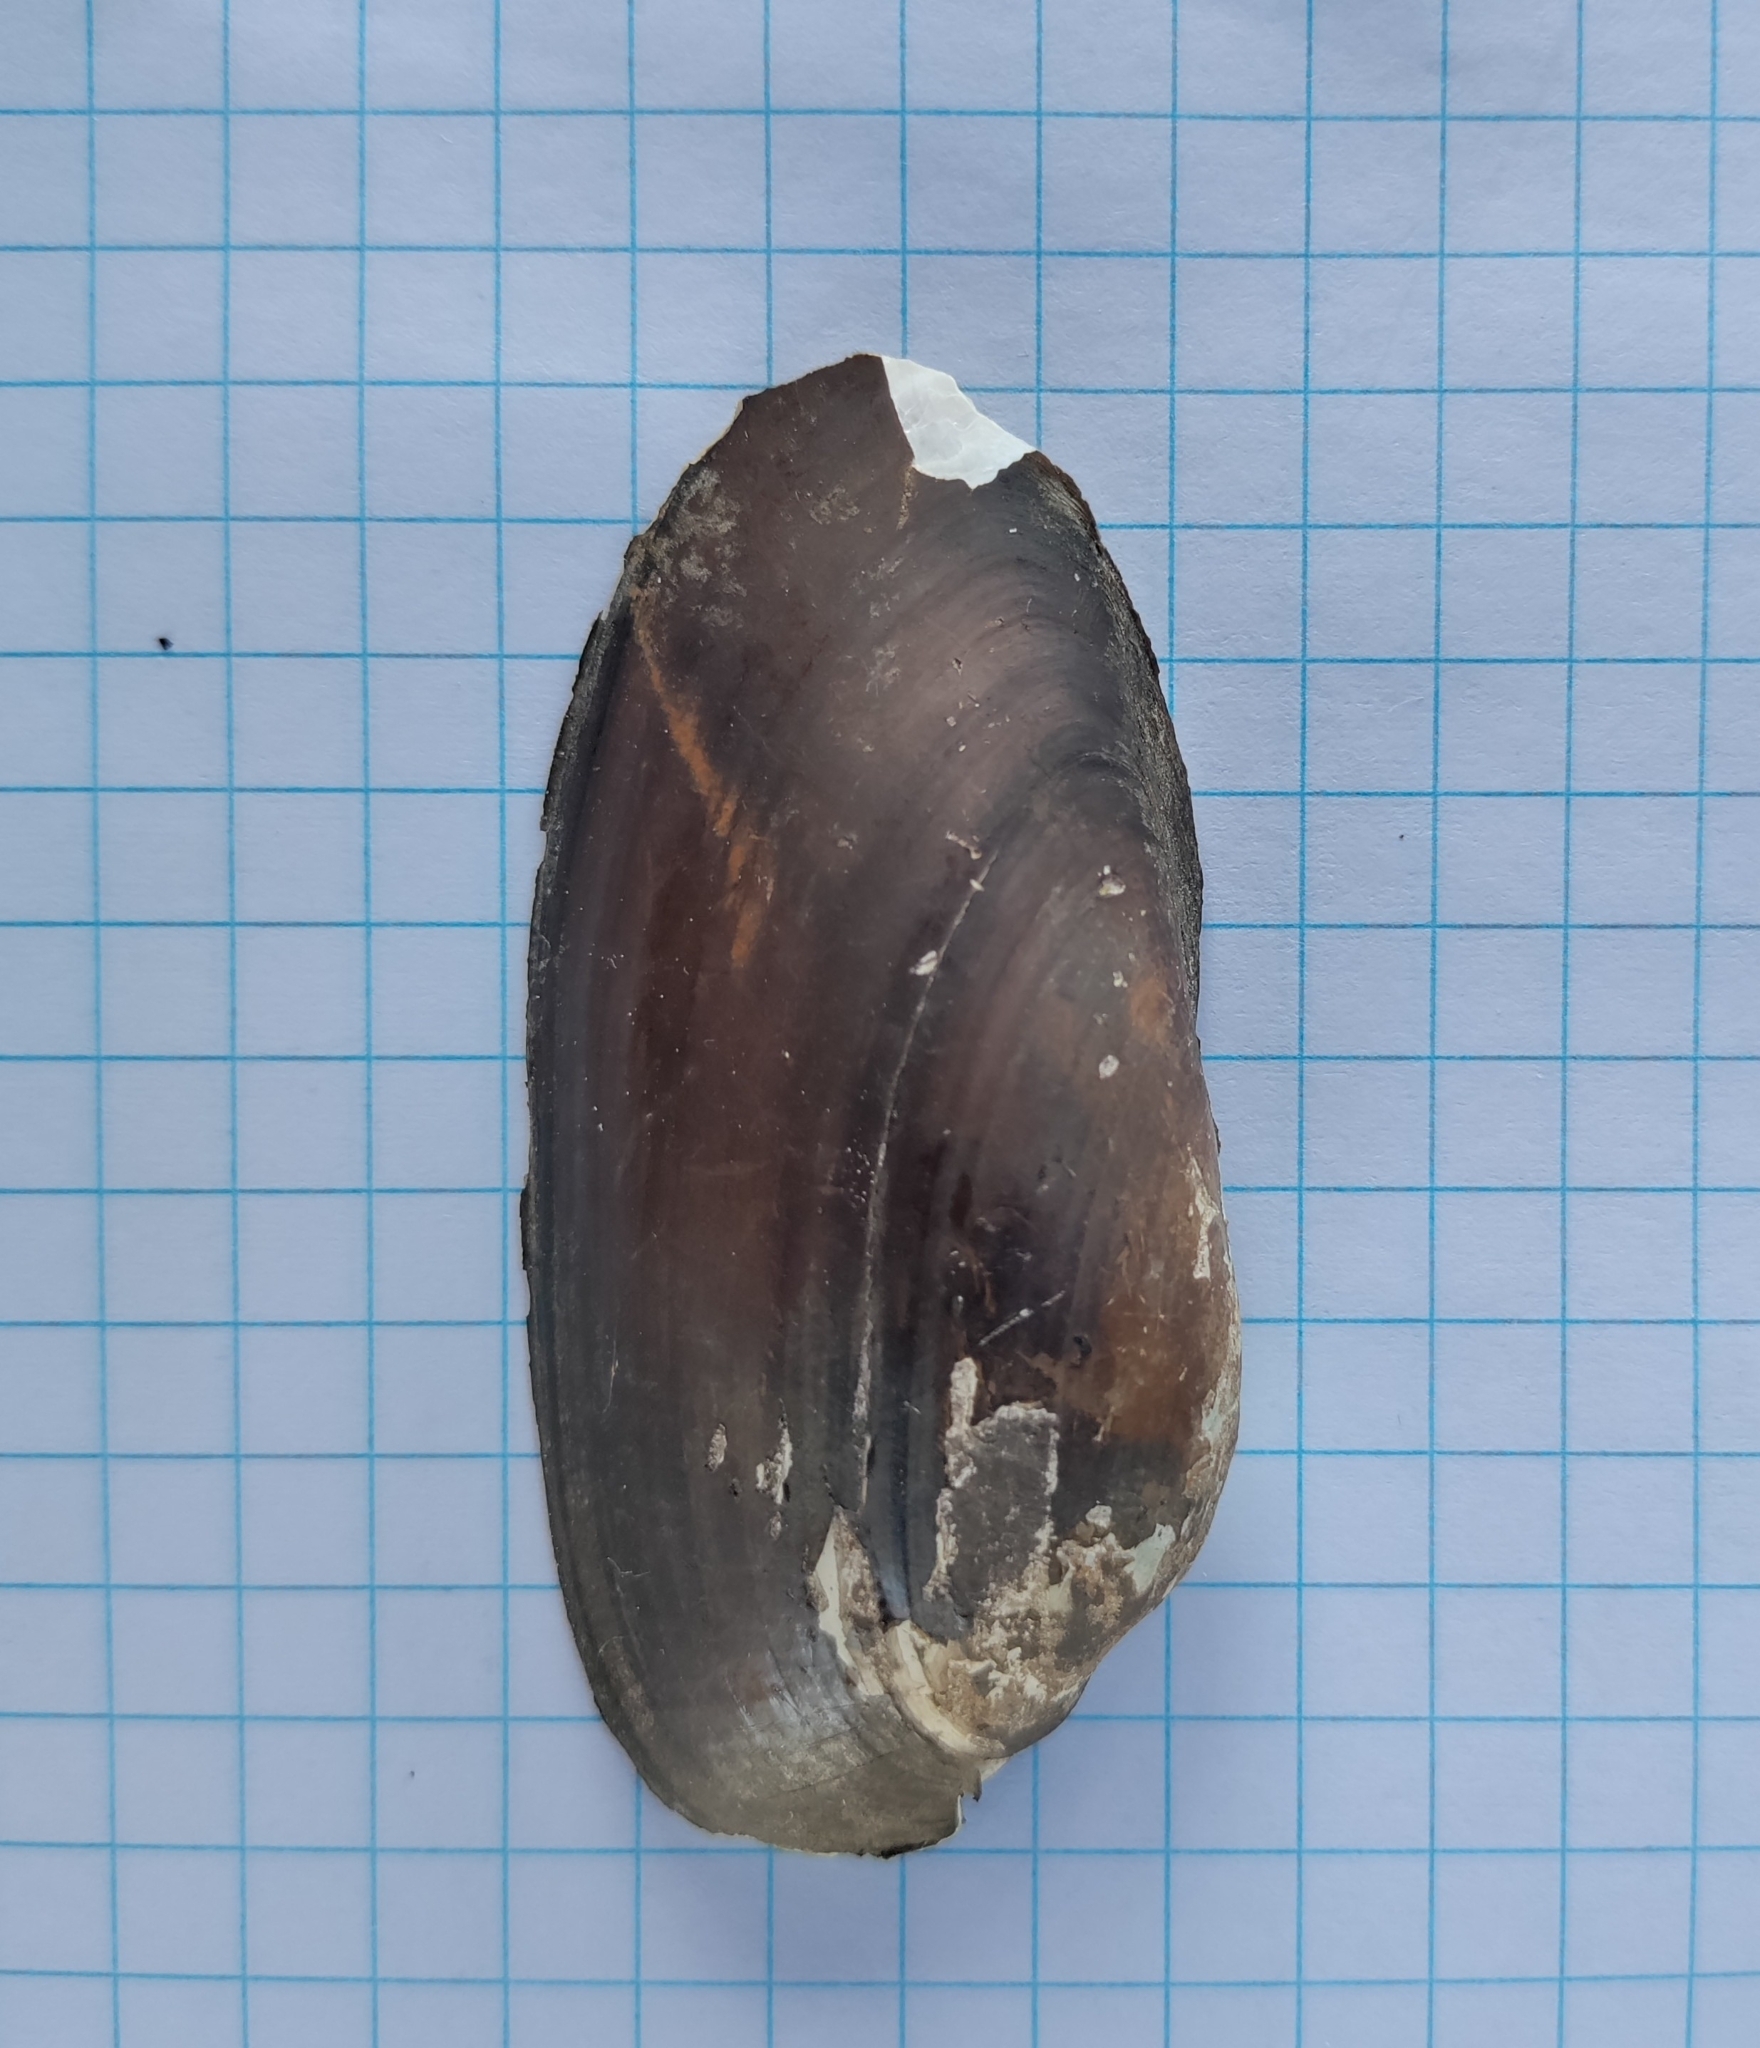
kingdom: Animalia
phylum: Mollusca
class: Bivalvia
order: Unionida
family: Unionidae
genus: Unio
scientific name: Unio pictorum
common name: Painter's mussel
